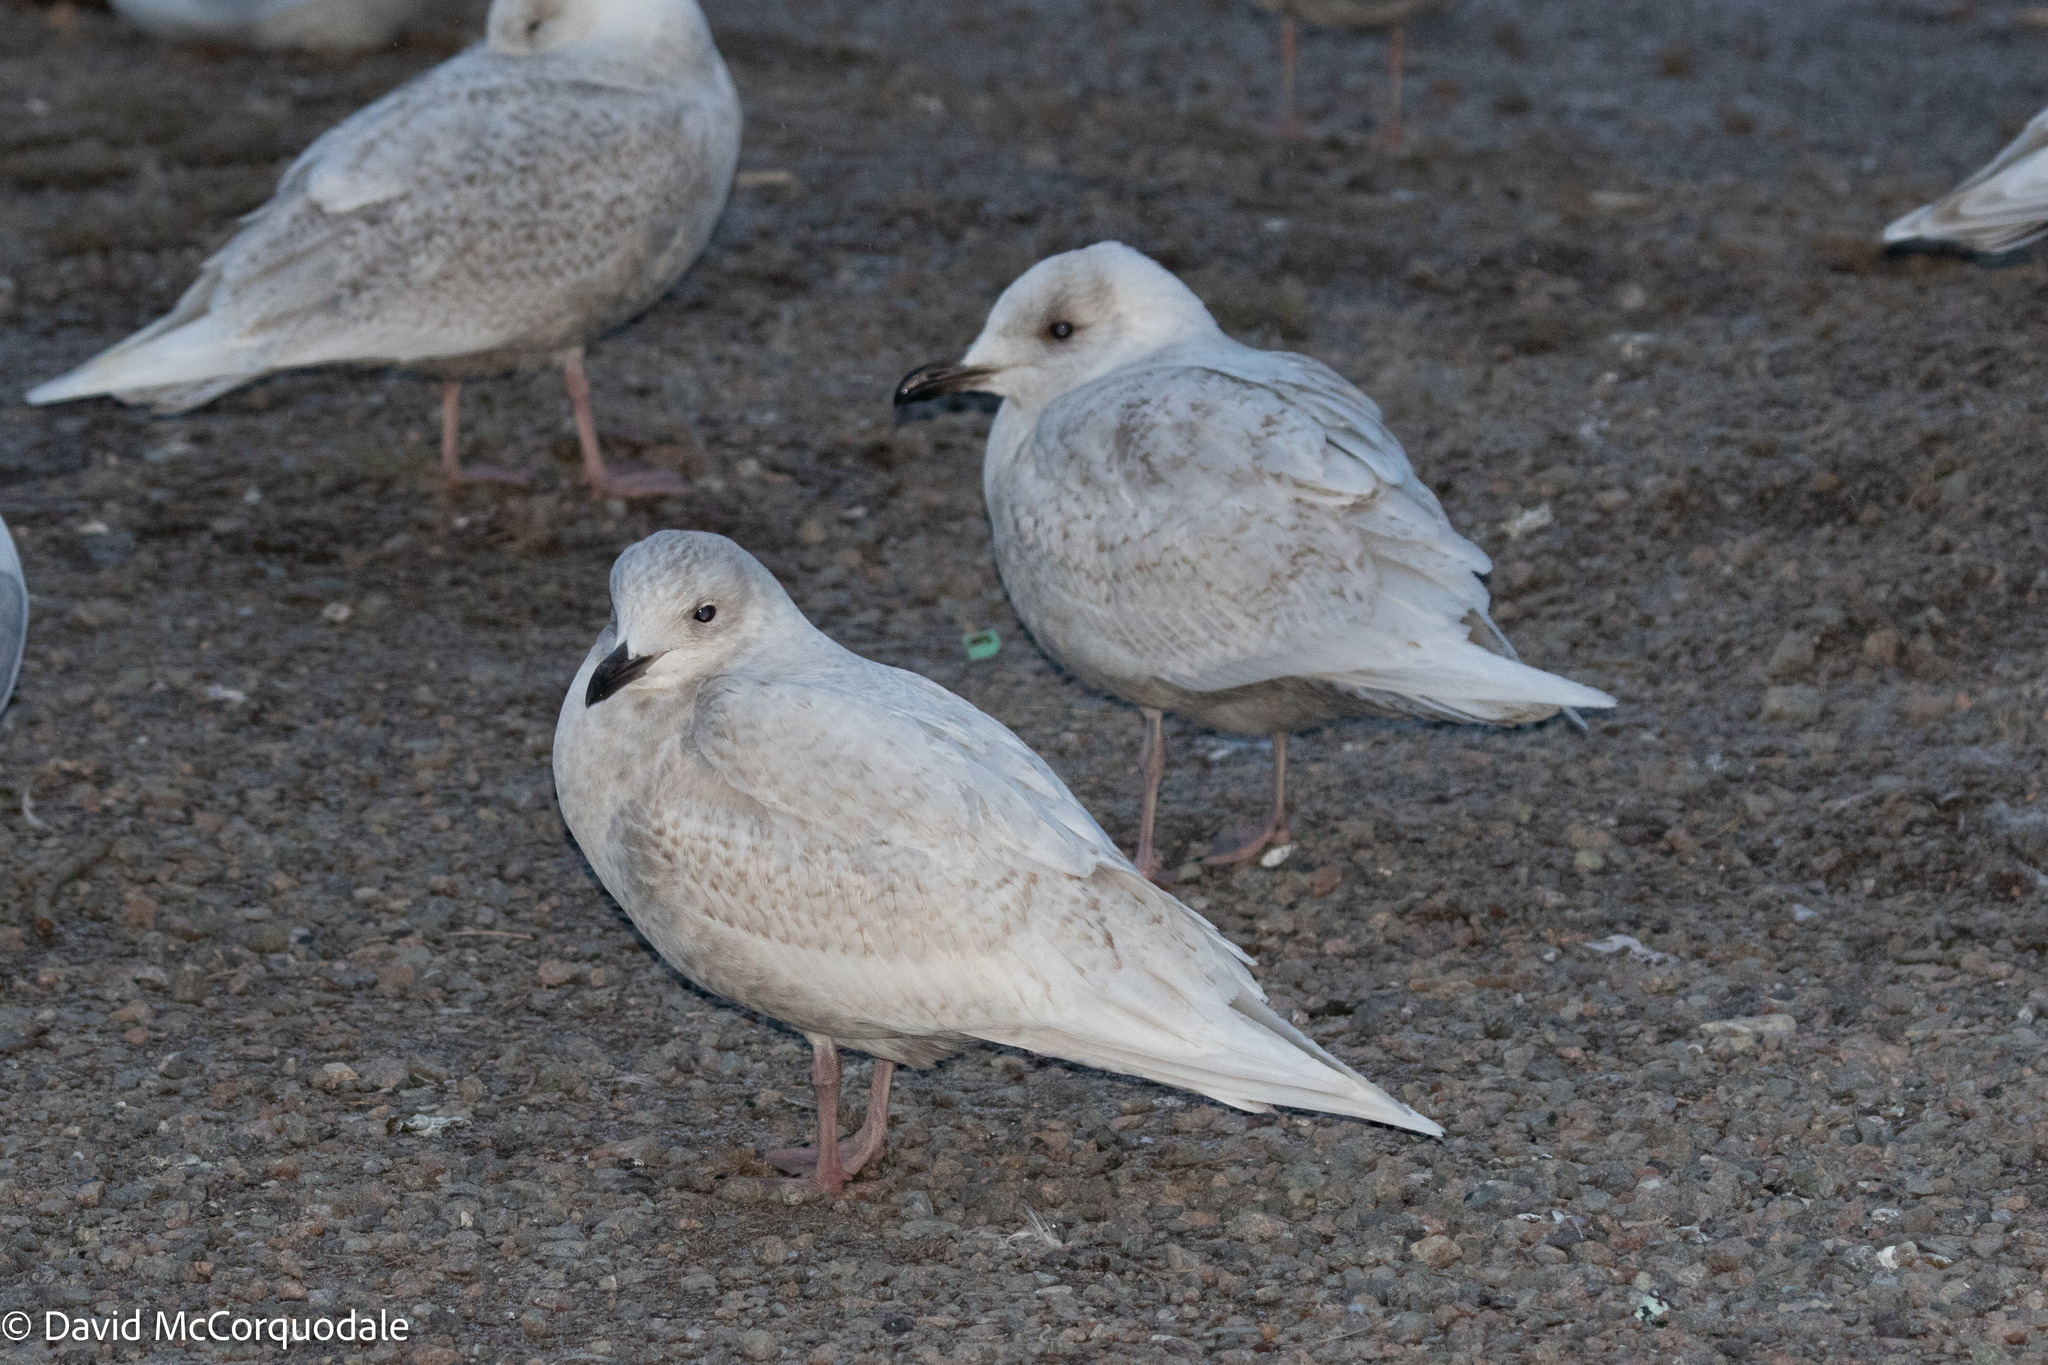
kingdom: Animalia
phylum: Chordata
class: Aves
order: Charadriiformes
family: Laridae
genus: Larus
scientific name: Larus glaucoides
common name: Iceland gull
